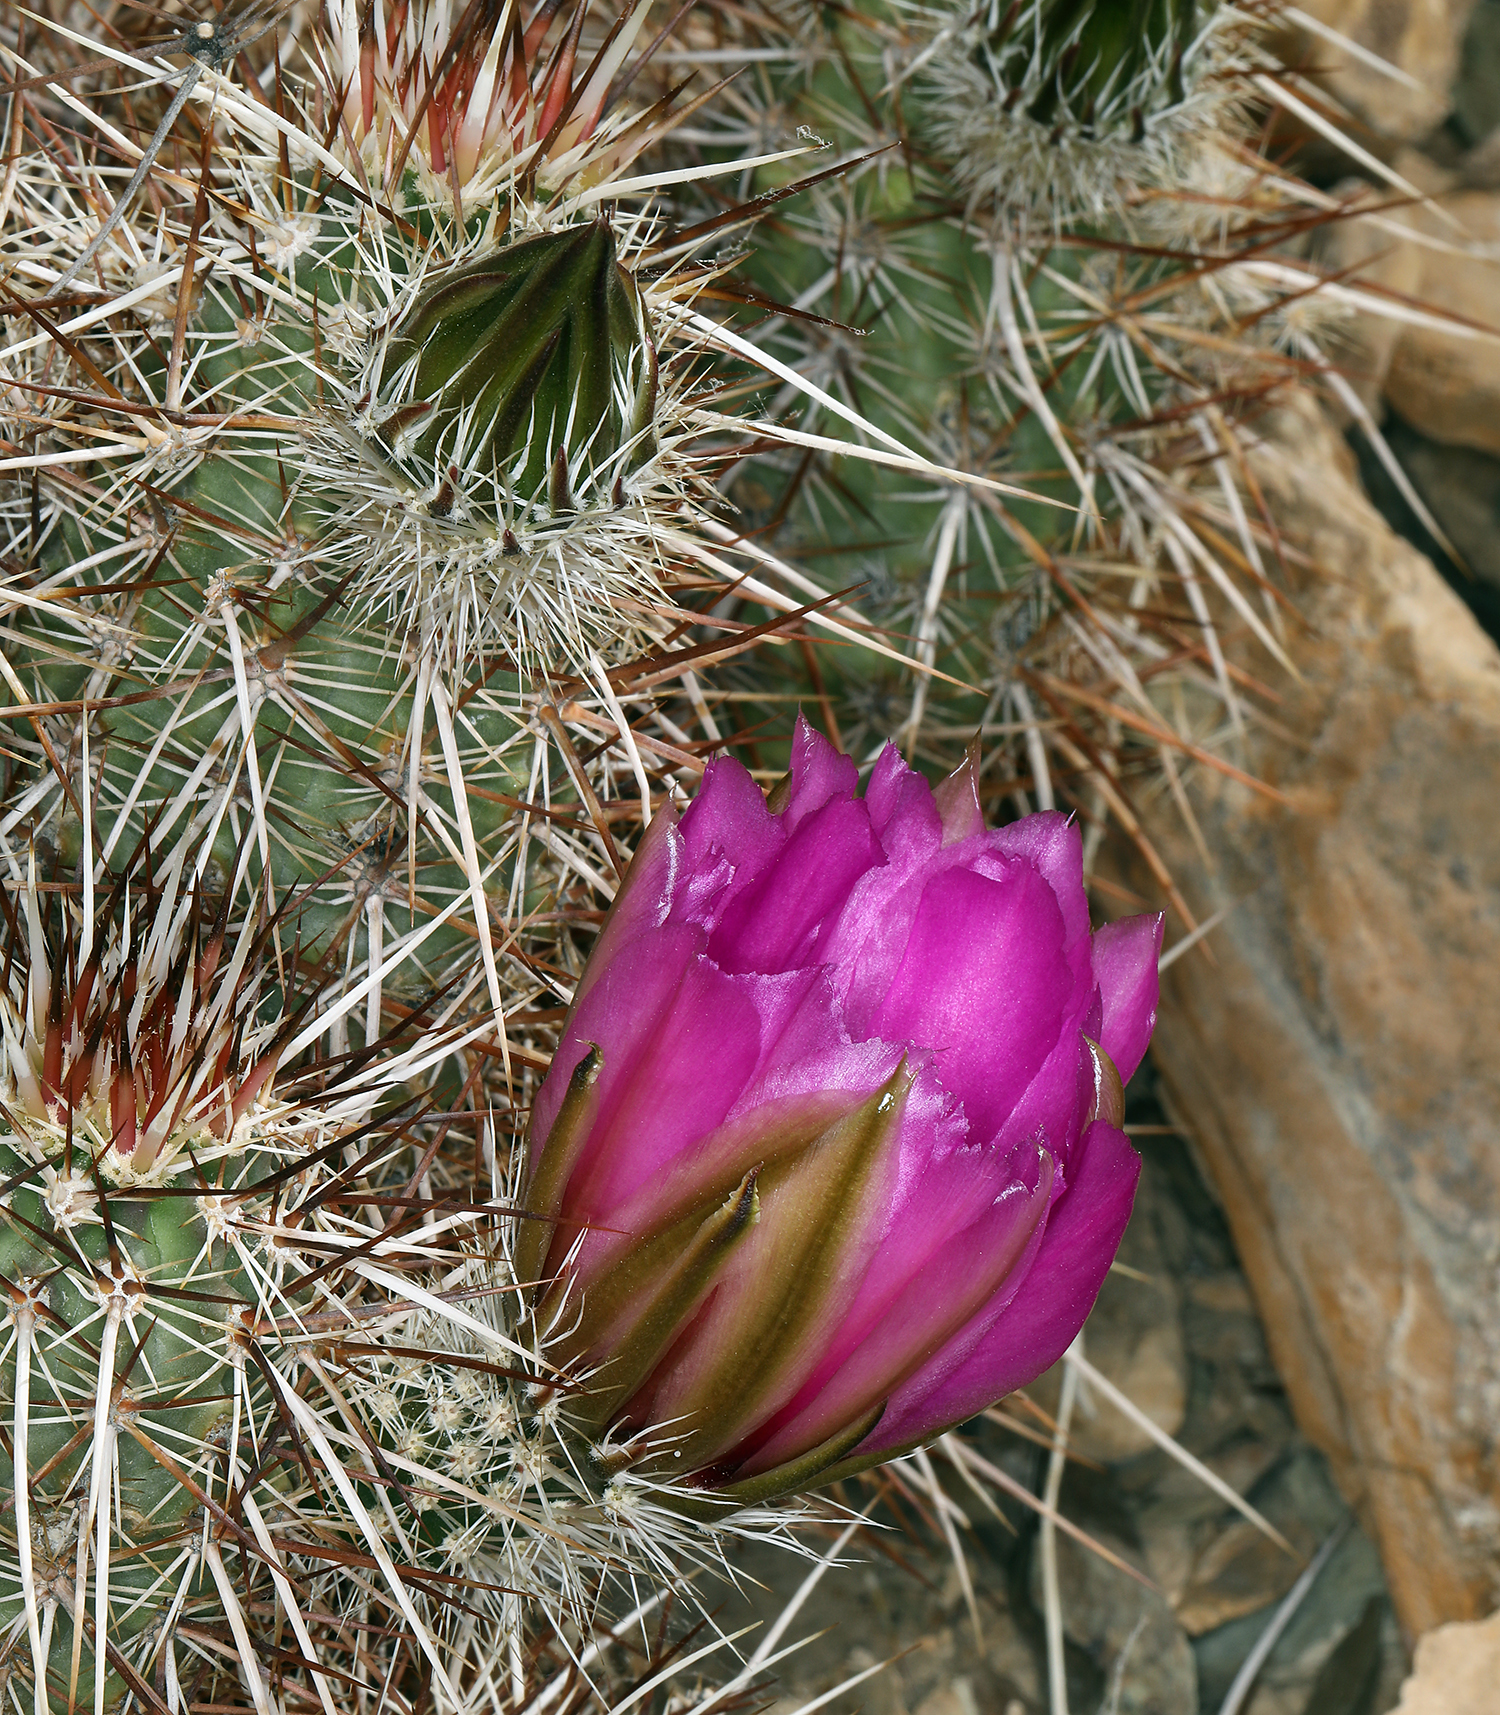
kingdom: Plantae
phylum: Tracheophyta
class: Magnoliopsida
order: Caryophyllales
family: Cactaceae
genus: Echinocereus
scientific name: Echinocereus engelmannii
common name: Engelmann's hedgehog cactus
